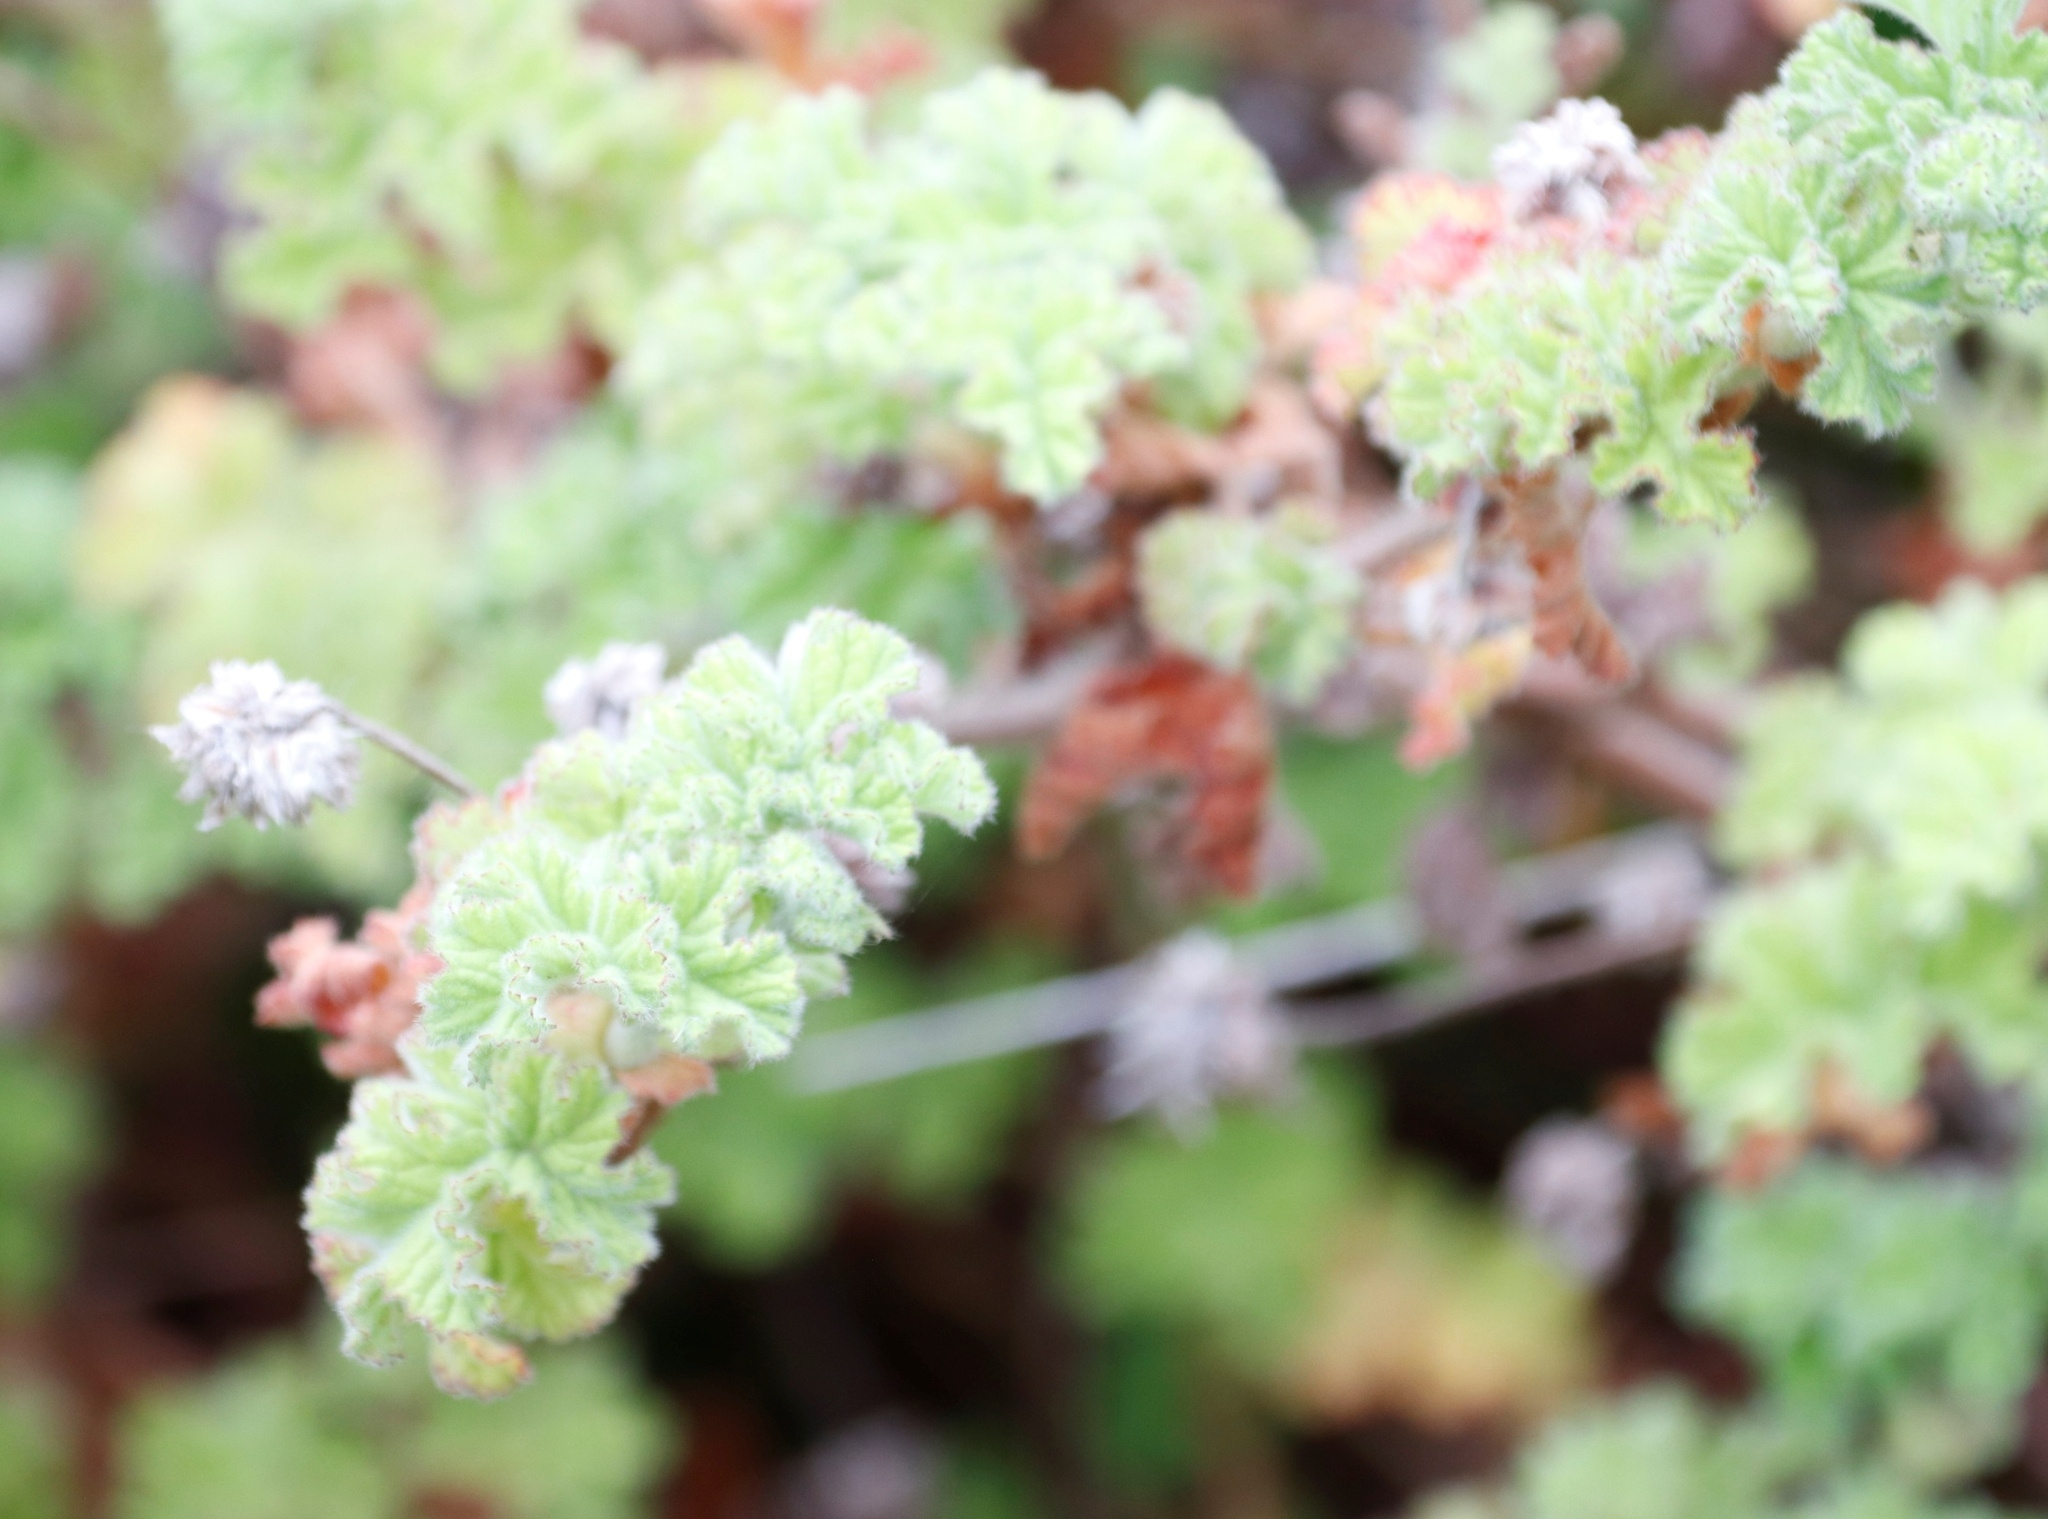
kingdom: Plantae
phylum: Tracheophyta
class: Magnoliopsida
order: Geraniales
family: Geraniaceae
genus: Pelargonium
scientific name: Pelargonium capitatum
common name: Rose scented geranium
